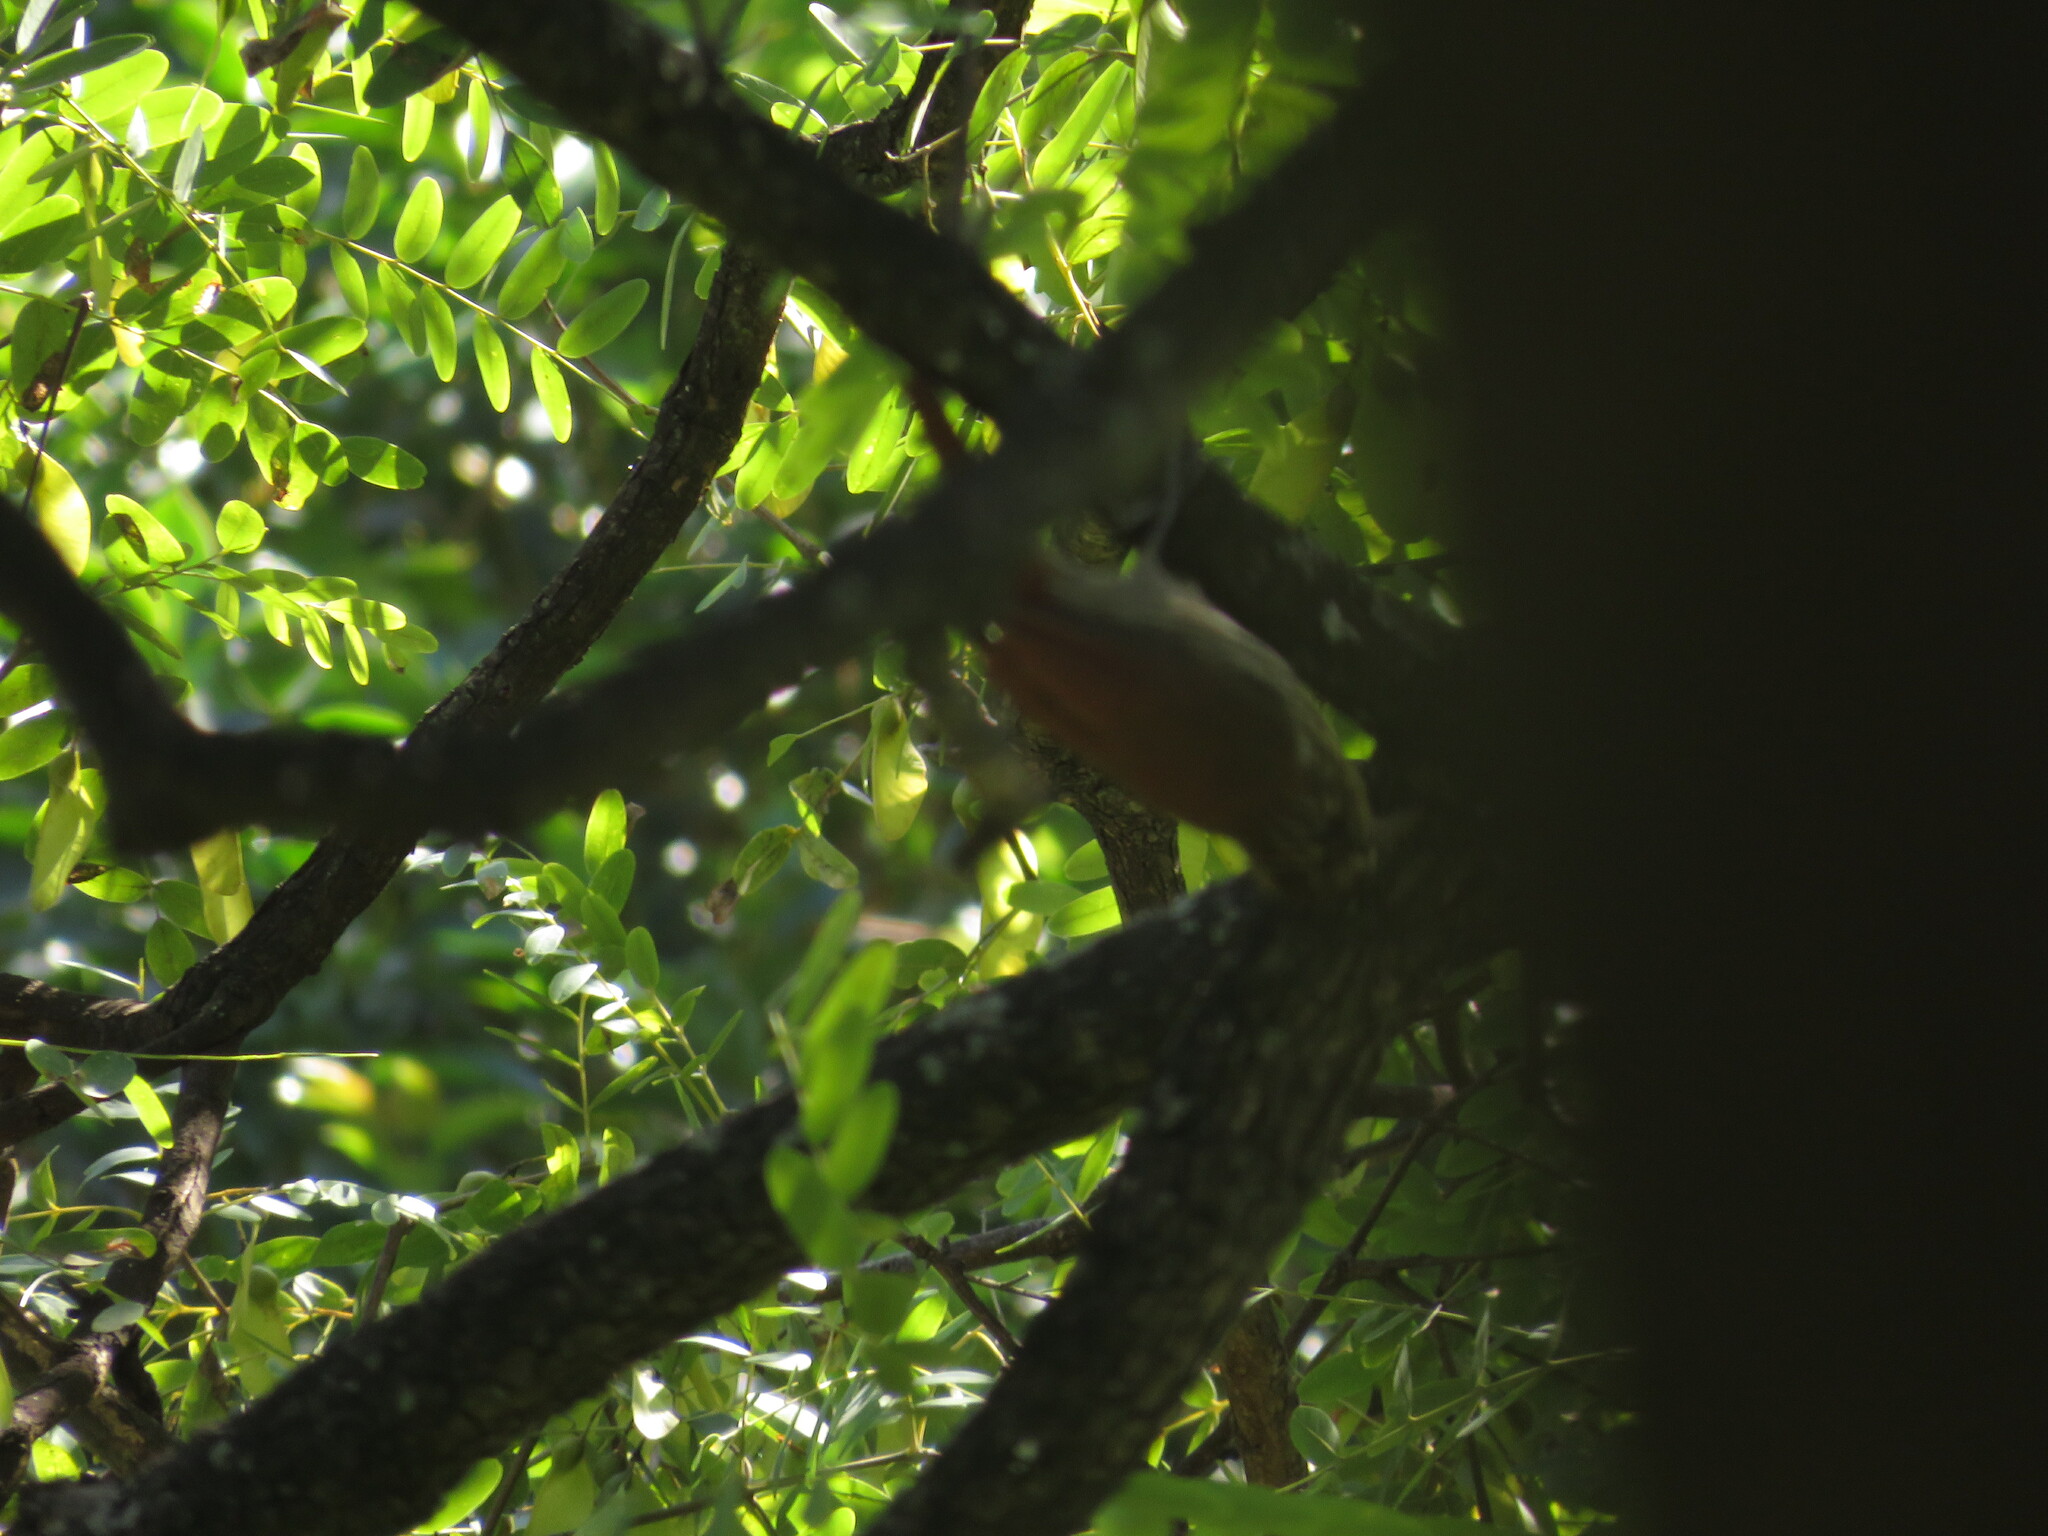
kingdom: Animalia
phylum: Chordata
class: Aves
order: Passeriformes
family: Furnariidae
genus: Lepidocolaptes
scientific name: Lepidocolaptes angustirostris
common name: Narrow-billed woodcreeper
